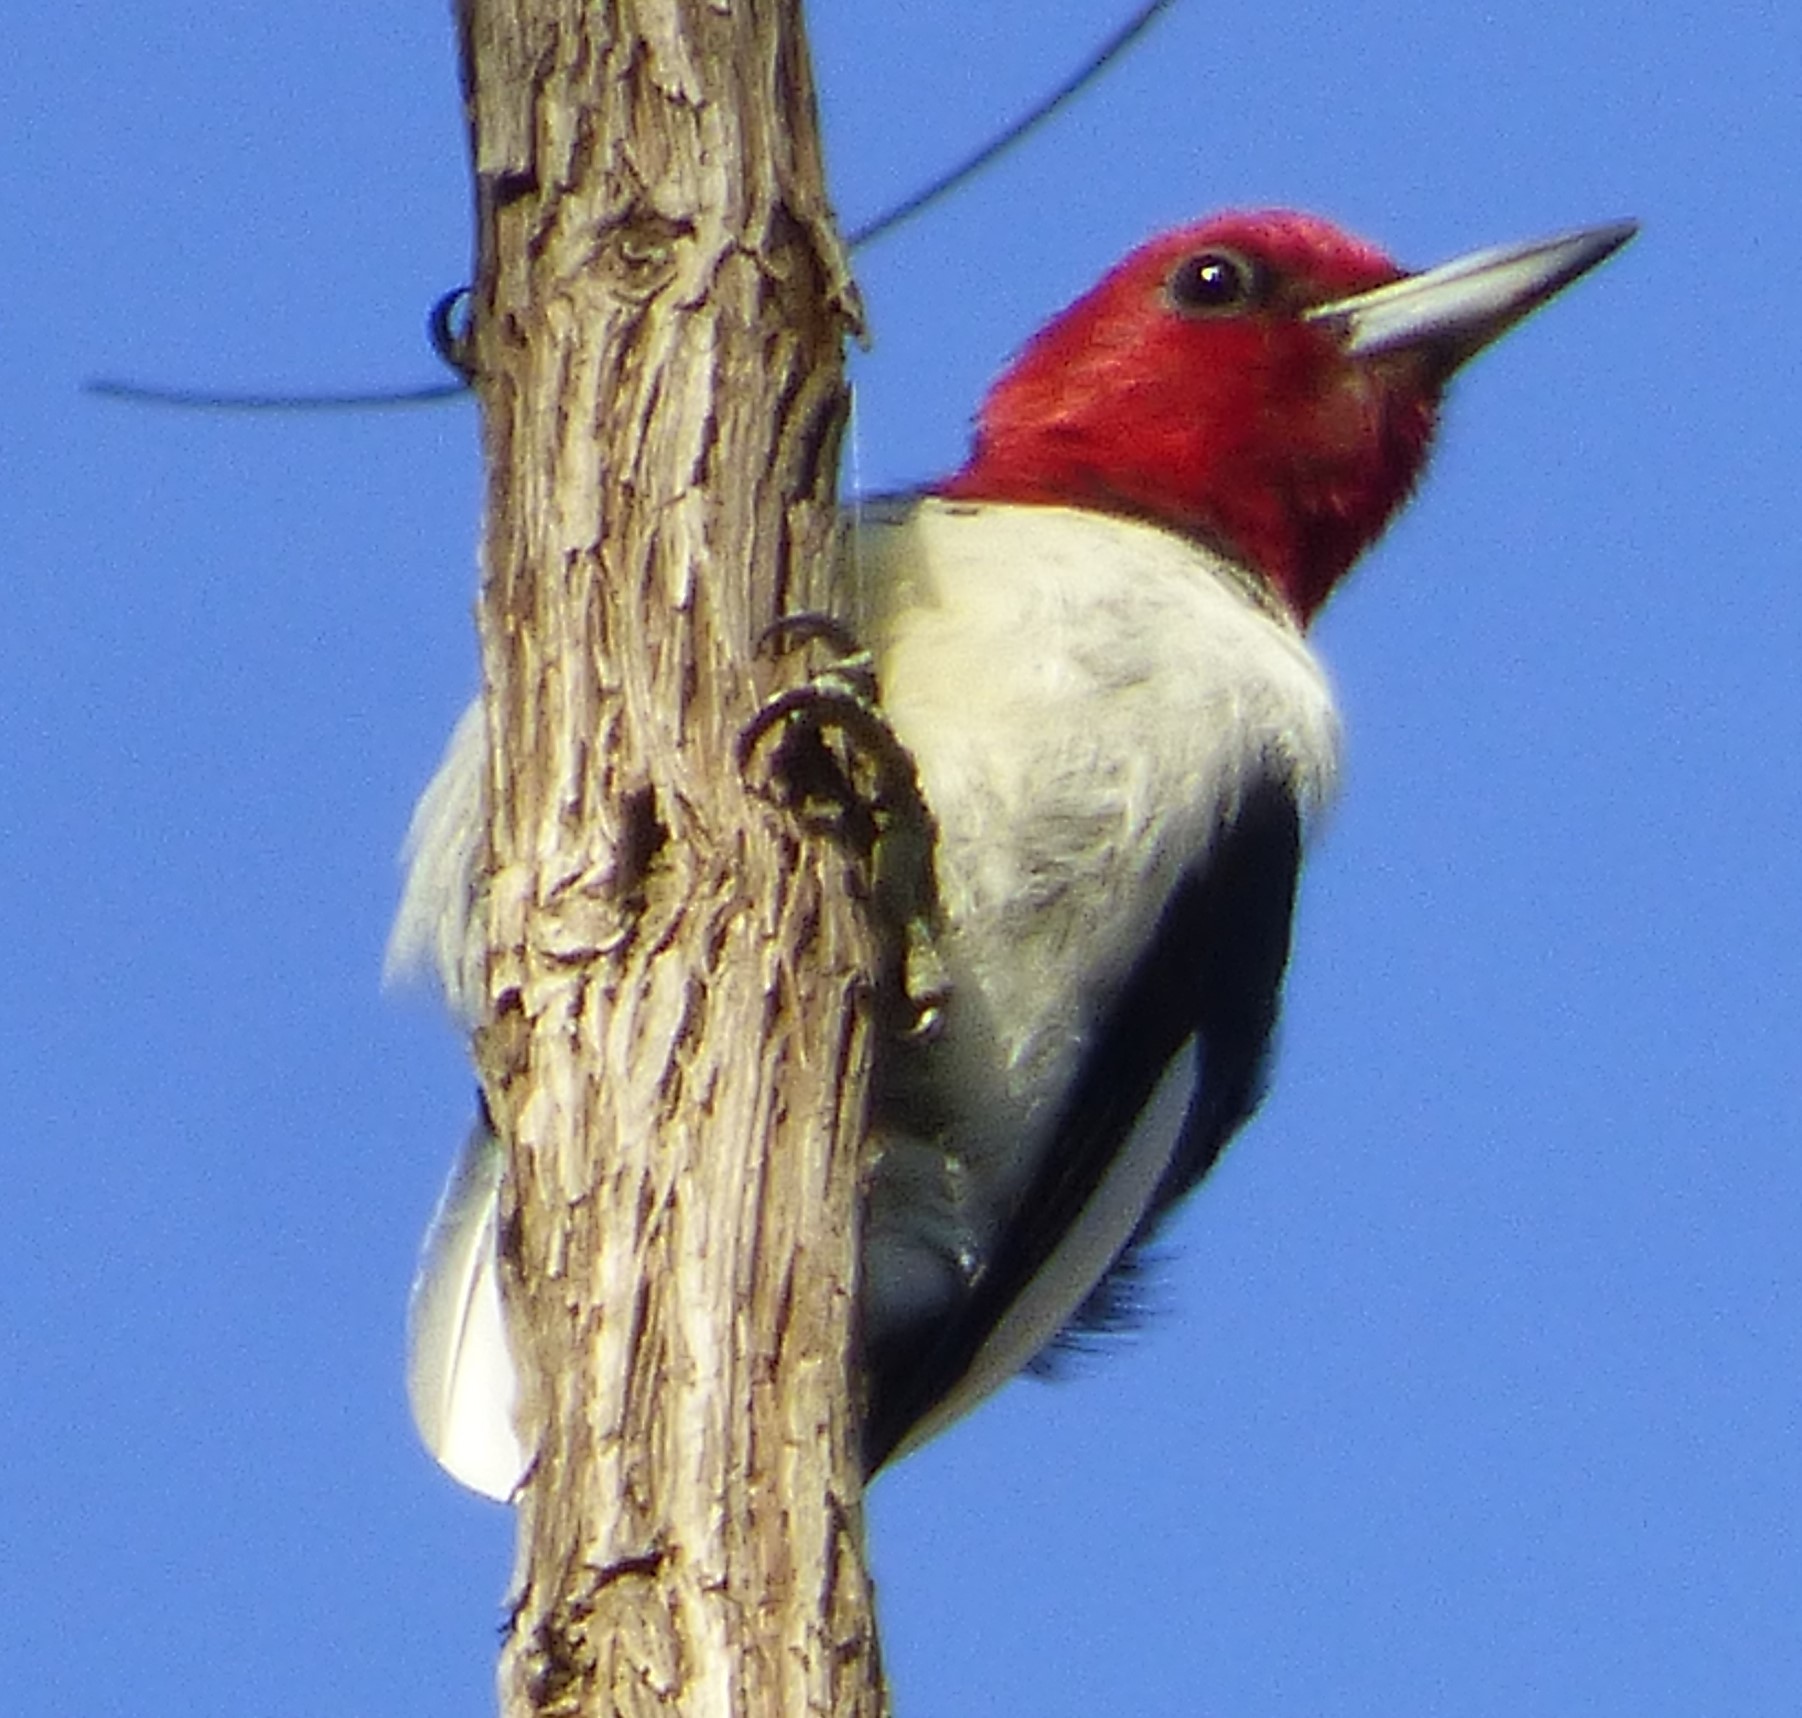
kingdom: Animalia
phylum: Chordata
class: Aves
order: Piciformes
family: Picidae
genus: Melanerpes
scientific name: Melanerpes erythrocephalus
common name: Red-headed woodpecker
